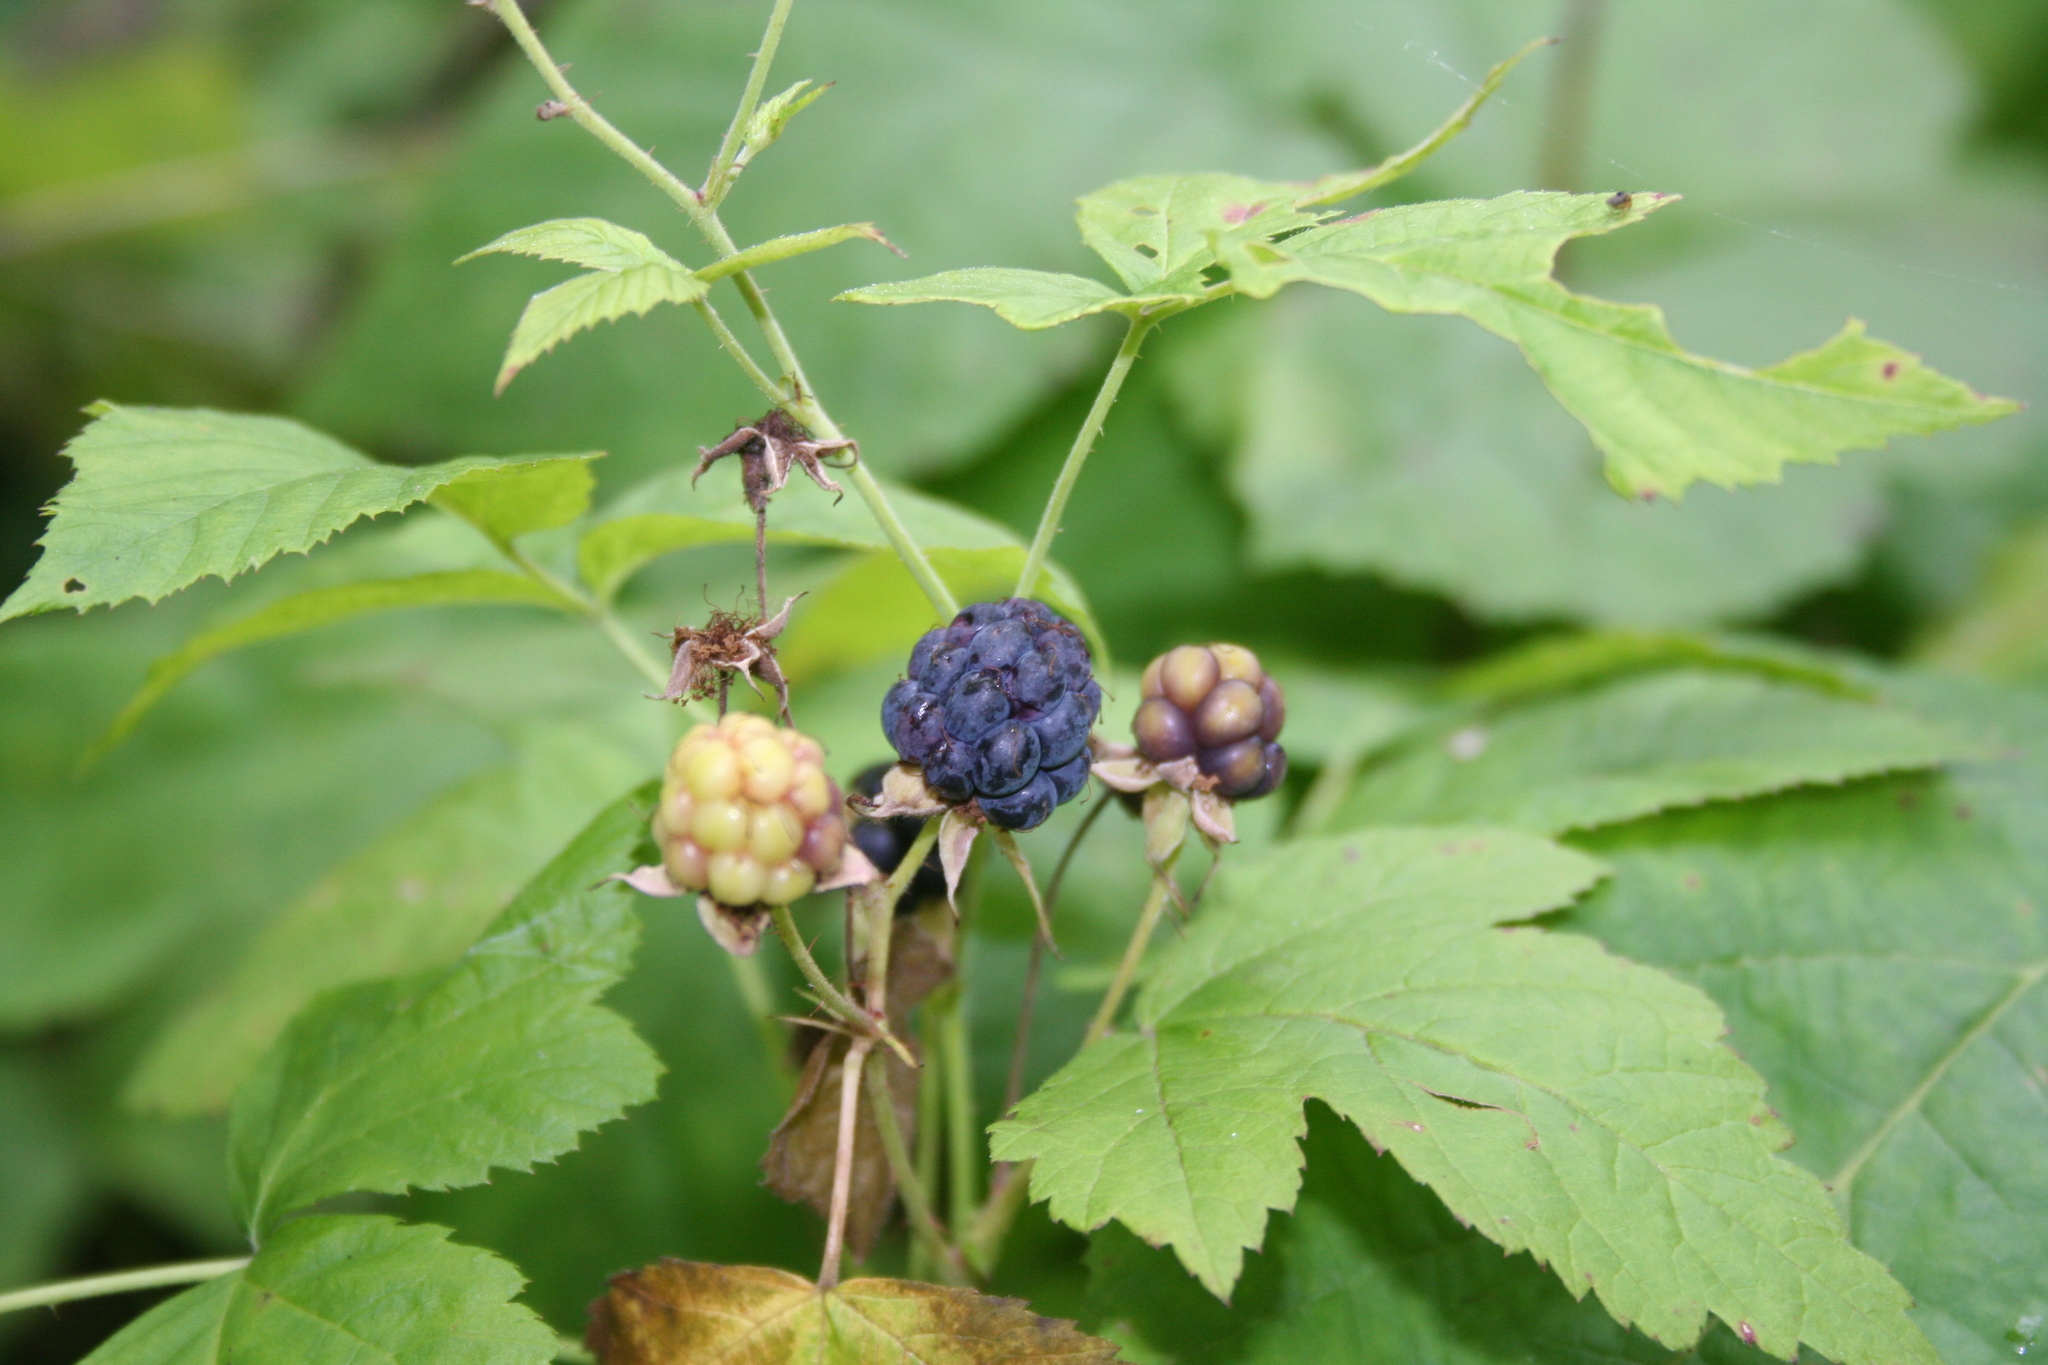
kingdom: Plantae
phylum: Tracheophyta
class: Magnoliopsida
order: Rosales
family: Rosaceae
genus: Rubus
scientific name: Rubus caesius
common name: Dewberry
